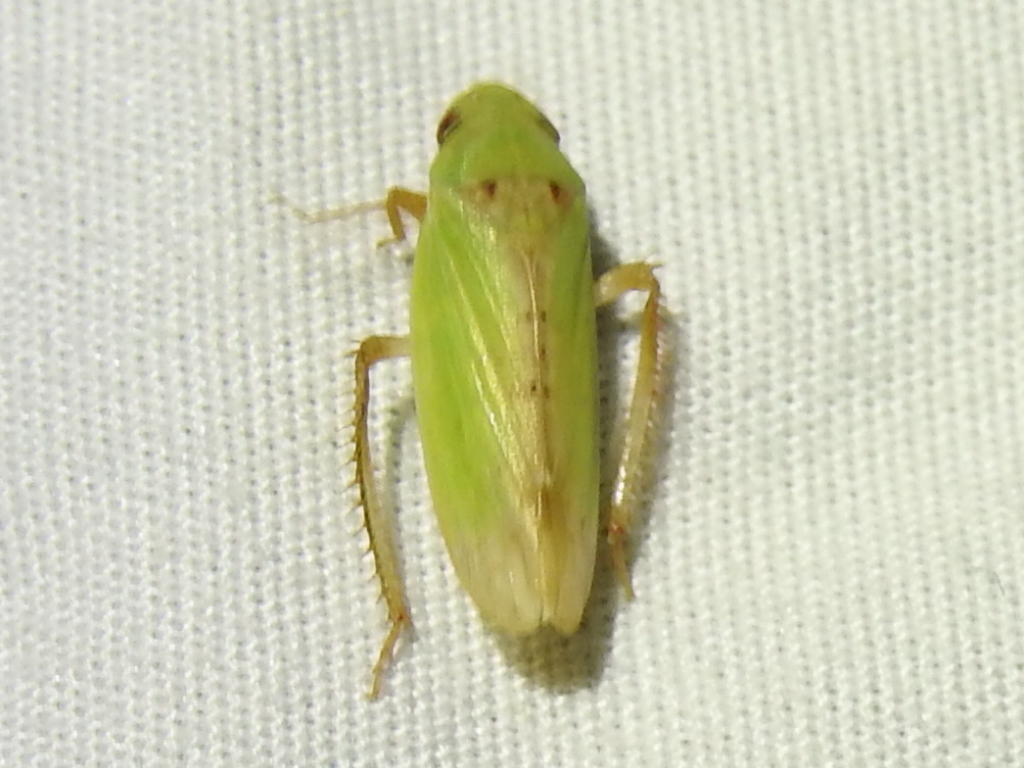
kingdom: Animalia
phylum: Arthropoda
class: Insecta
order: Hemiptera
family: Cicadellidae
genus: Ponana
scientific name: Ponana
